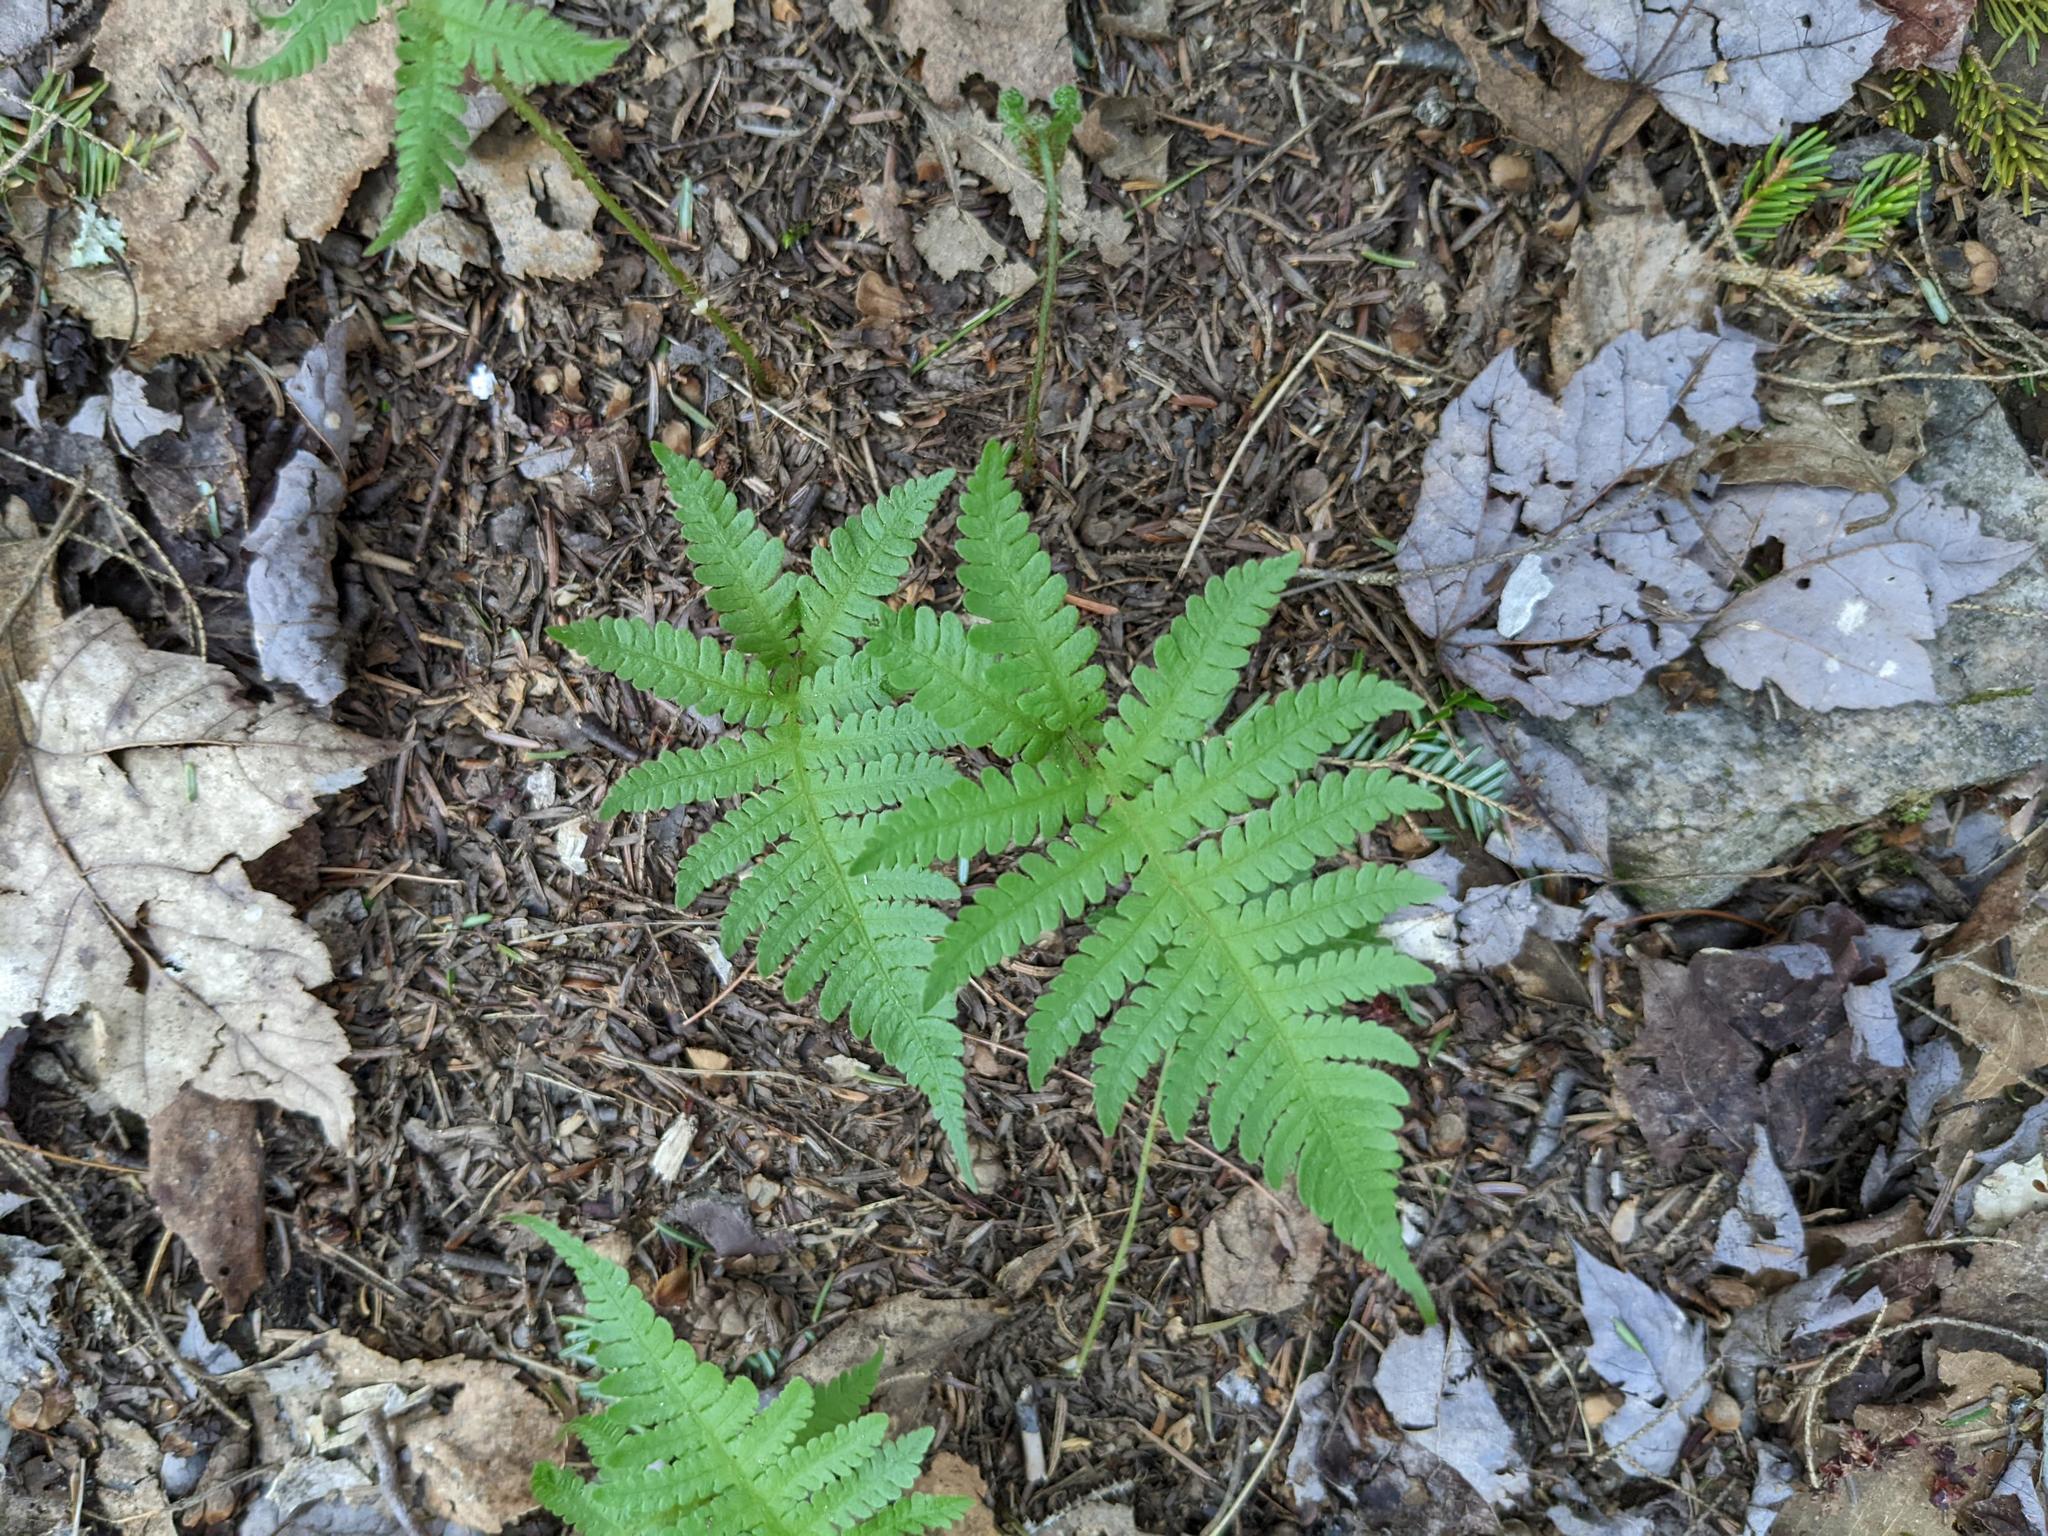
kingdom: Plantae
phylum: Tracheophyta
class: Polypodiopsida
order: Polypodiales
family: Thelypteridaceae
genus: Phegopteris
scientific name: Phegopteris connectilis
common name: Beech fern
